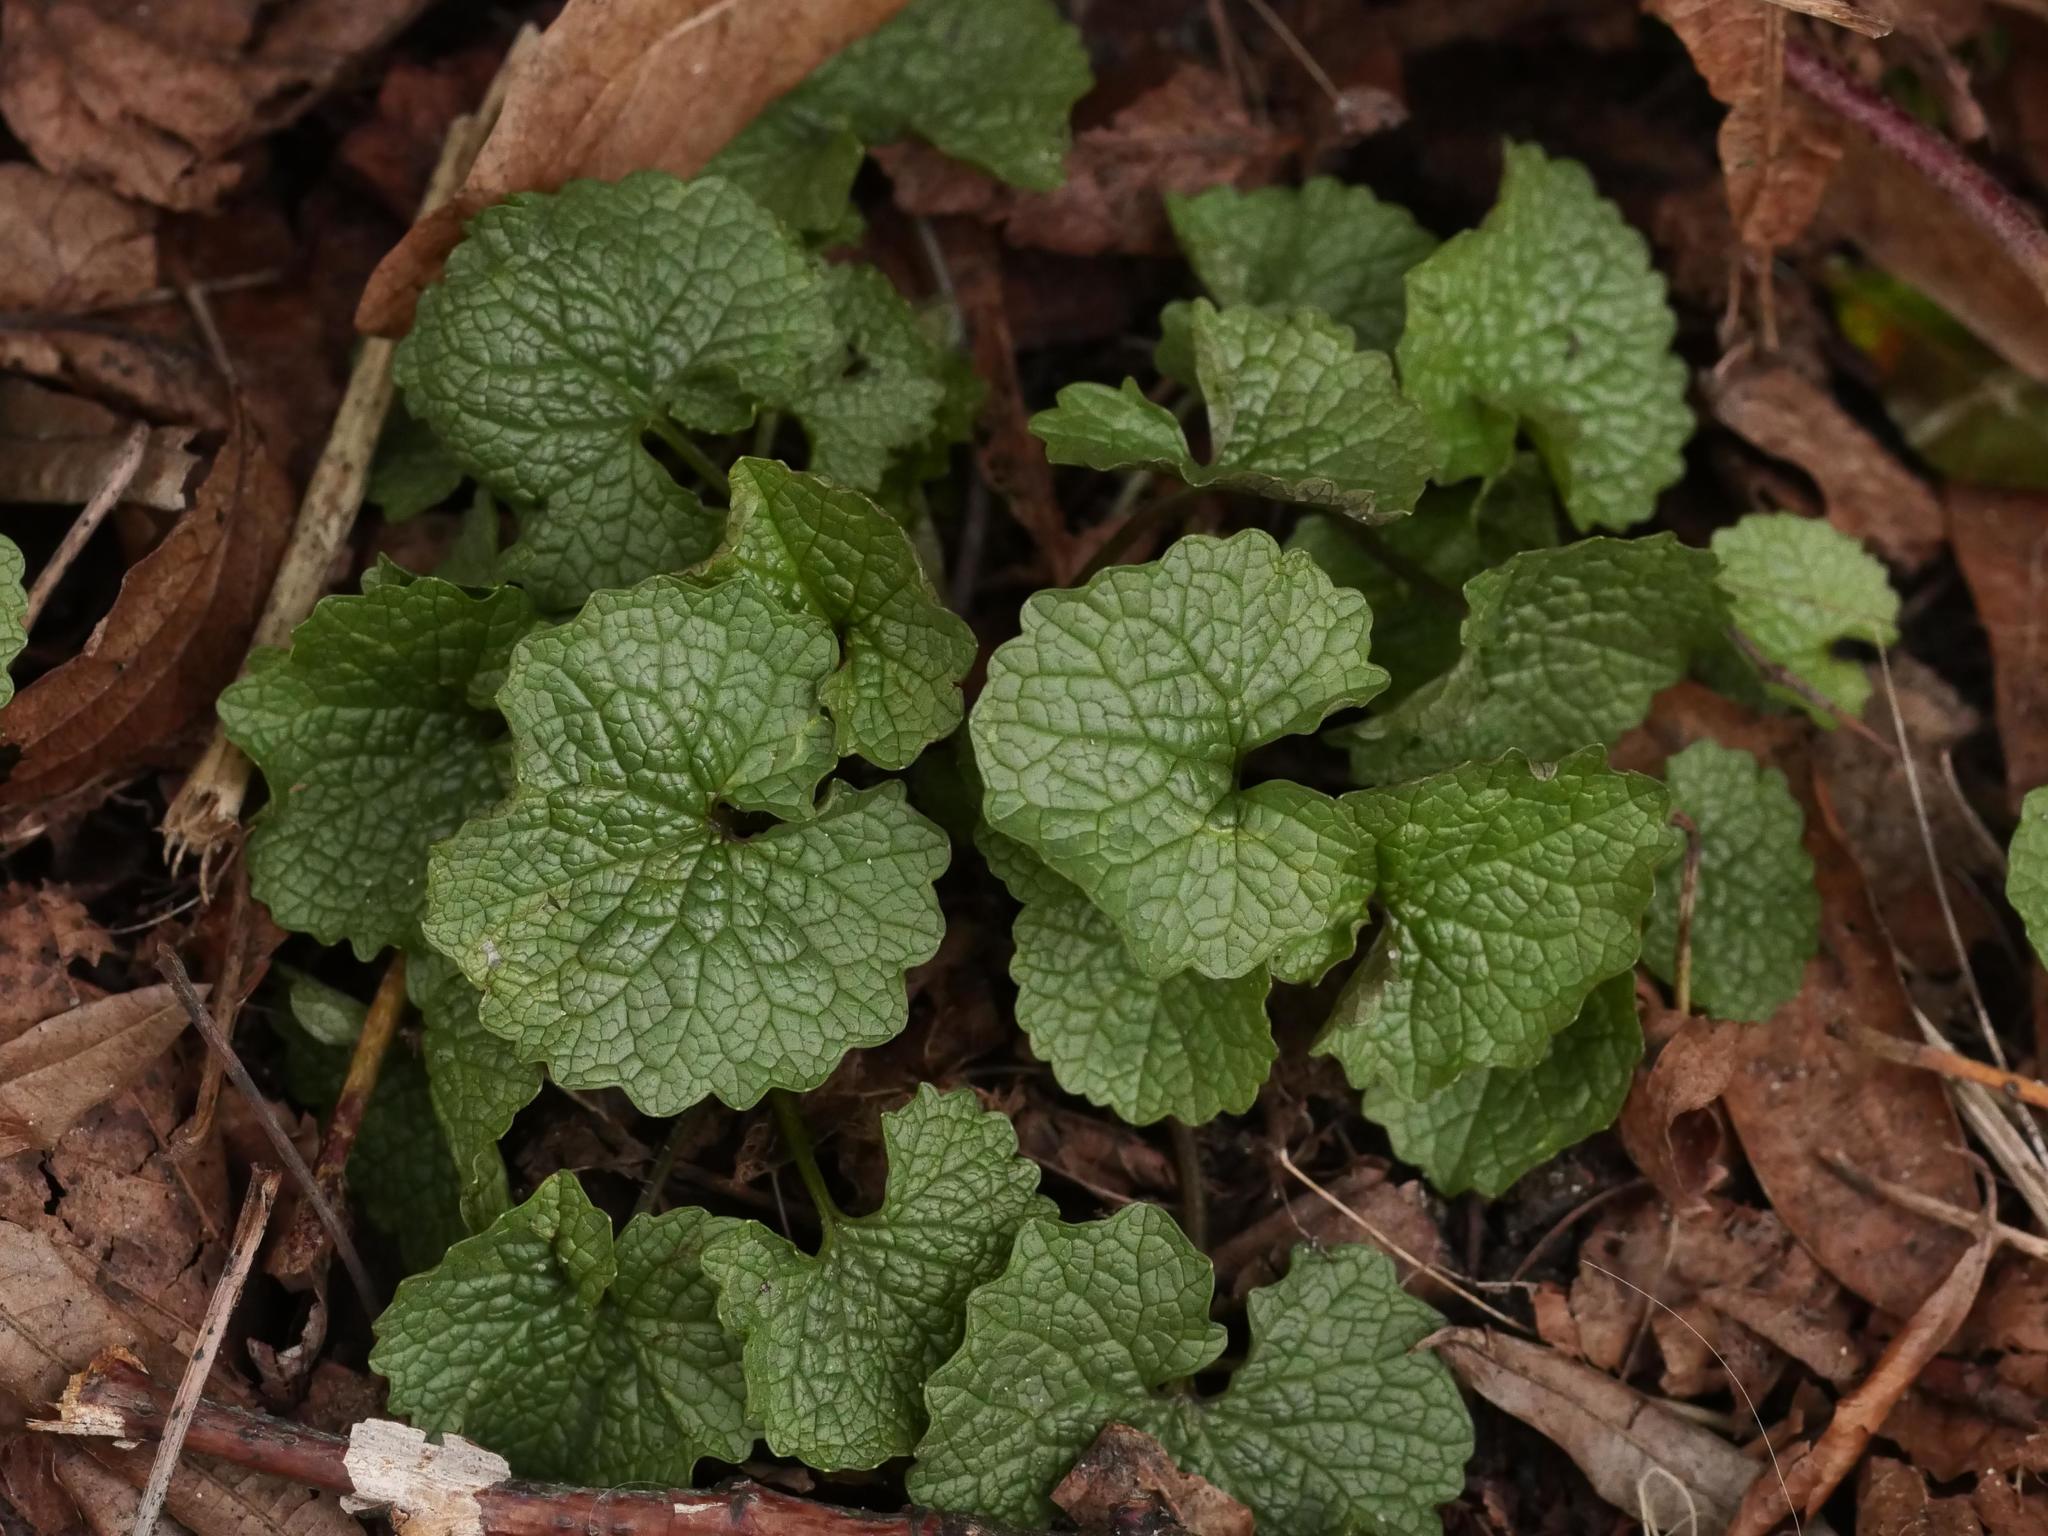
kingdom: Plantae
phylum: Tracheophyta
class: Magnoliopsida
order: Brassicales
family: Brassicaceae
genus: Alliaria
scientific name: Alliaria petiolata
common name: Garlic mustard
